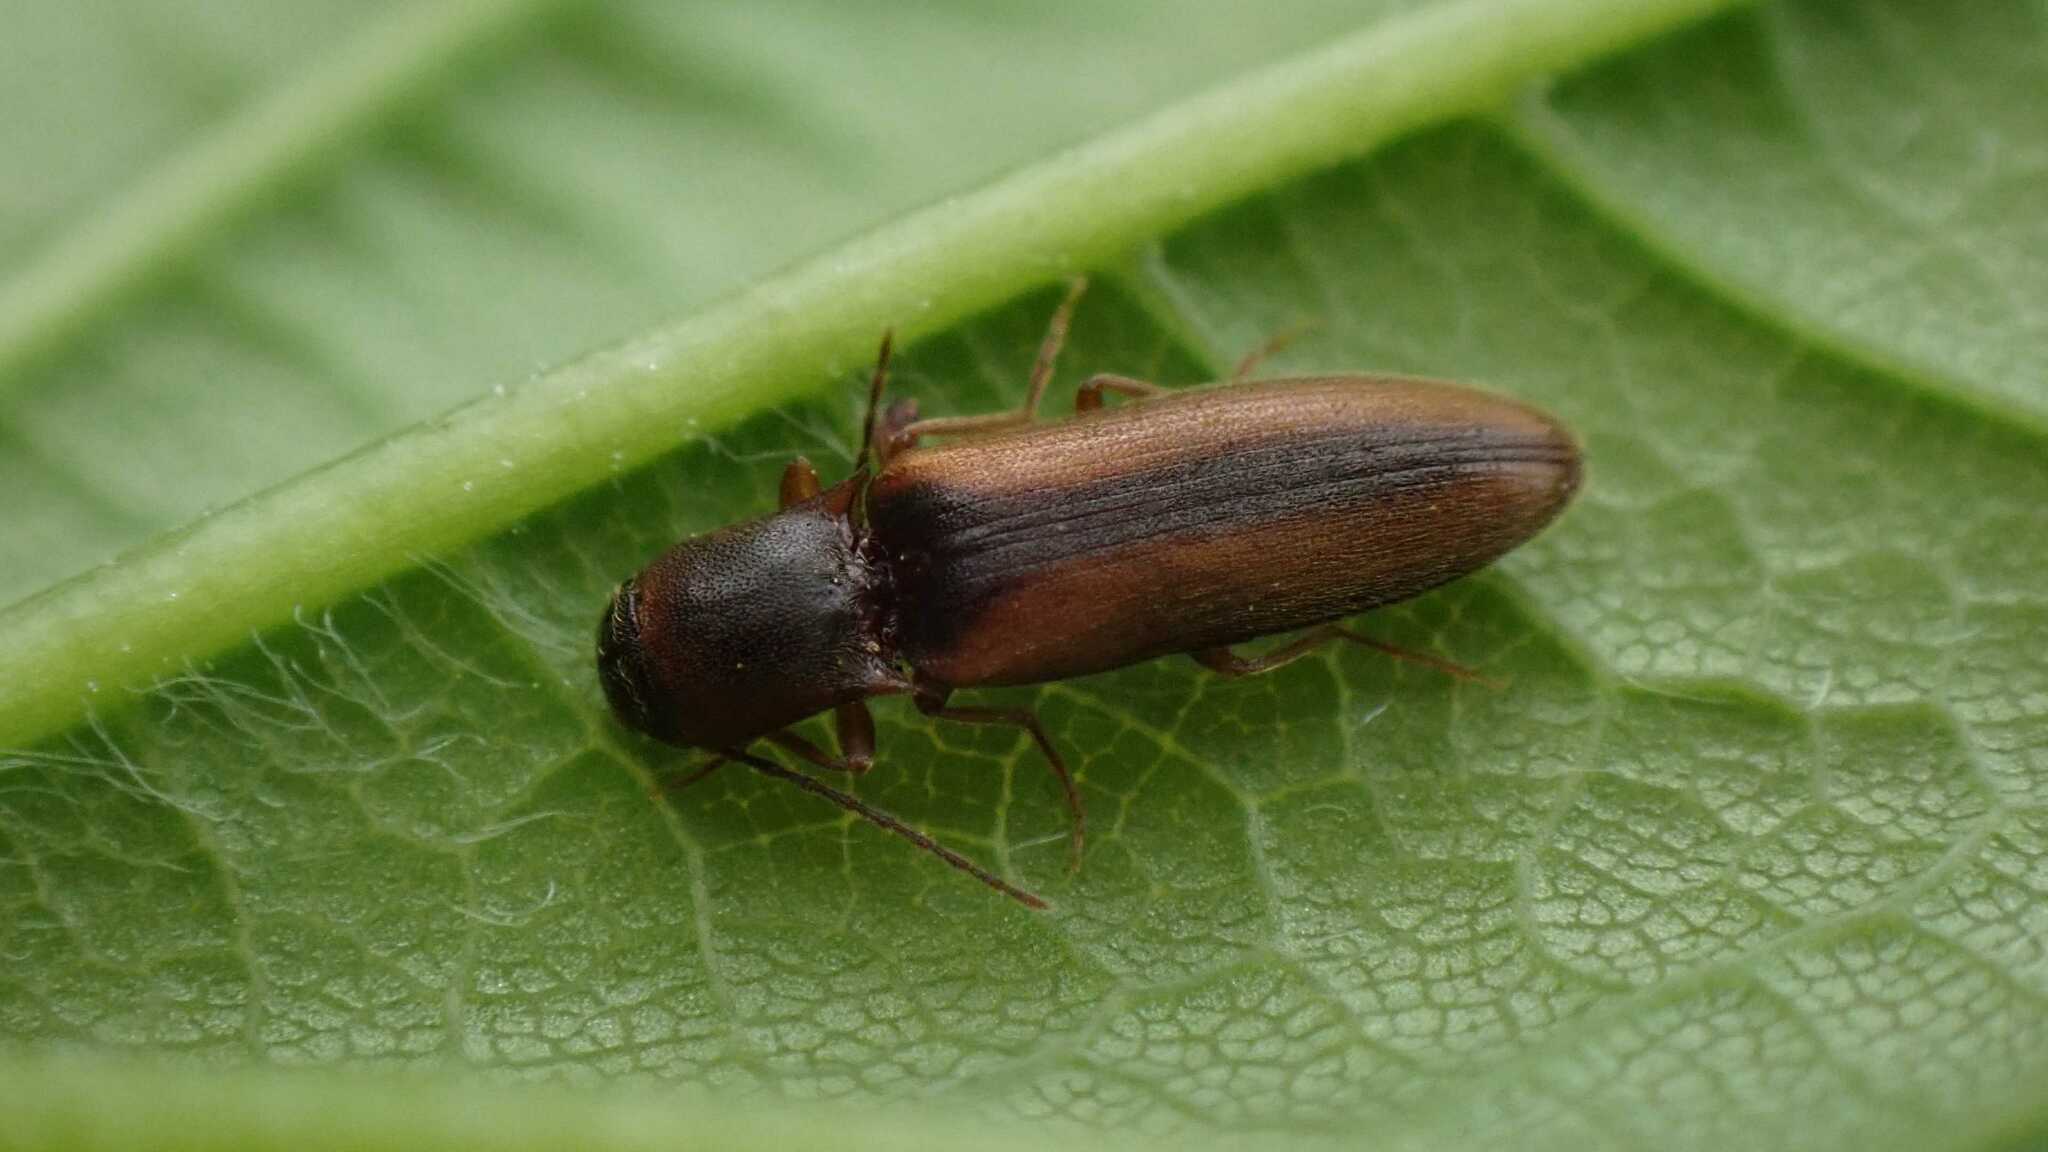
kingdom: Animalia
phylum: Arthropoda
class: Insecta
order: Coleoptera
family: Elateridae
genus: Dalopius
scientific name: Dalopius marginatus
